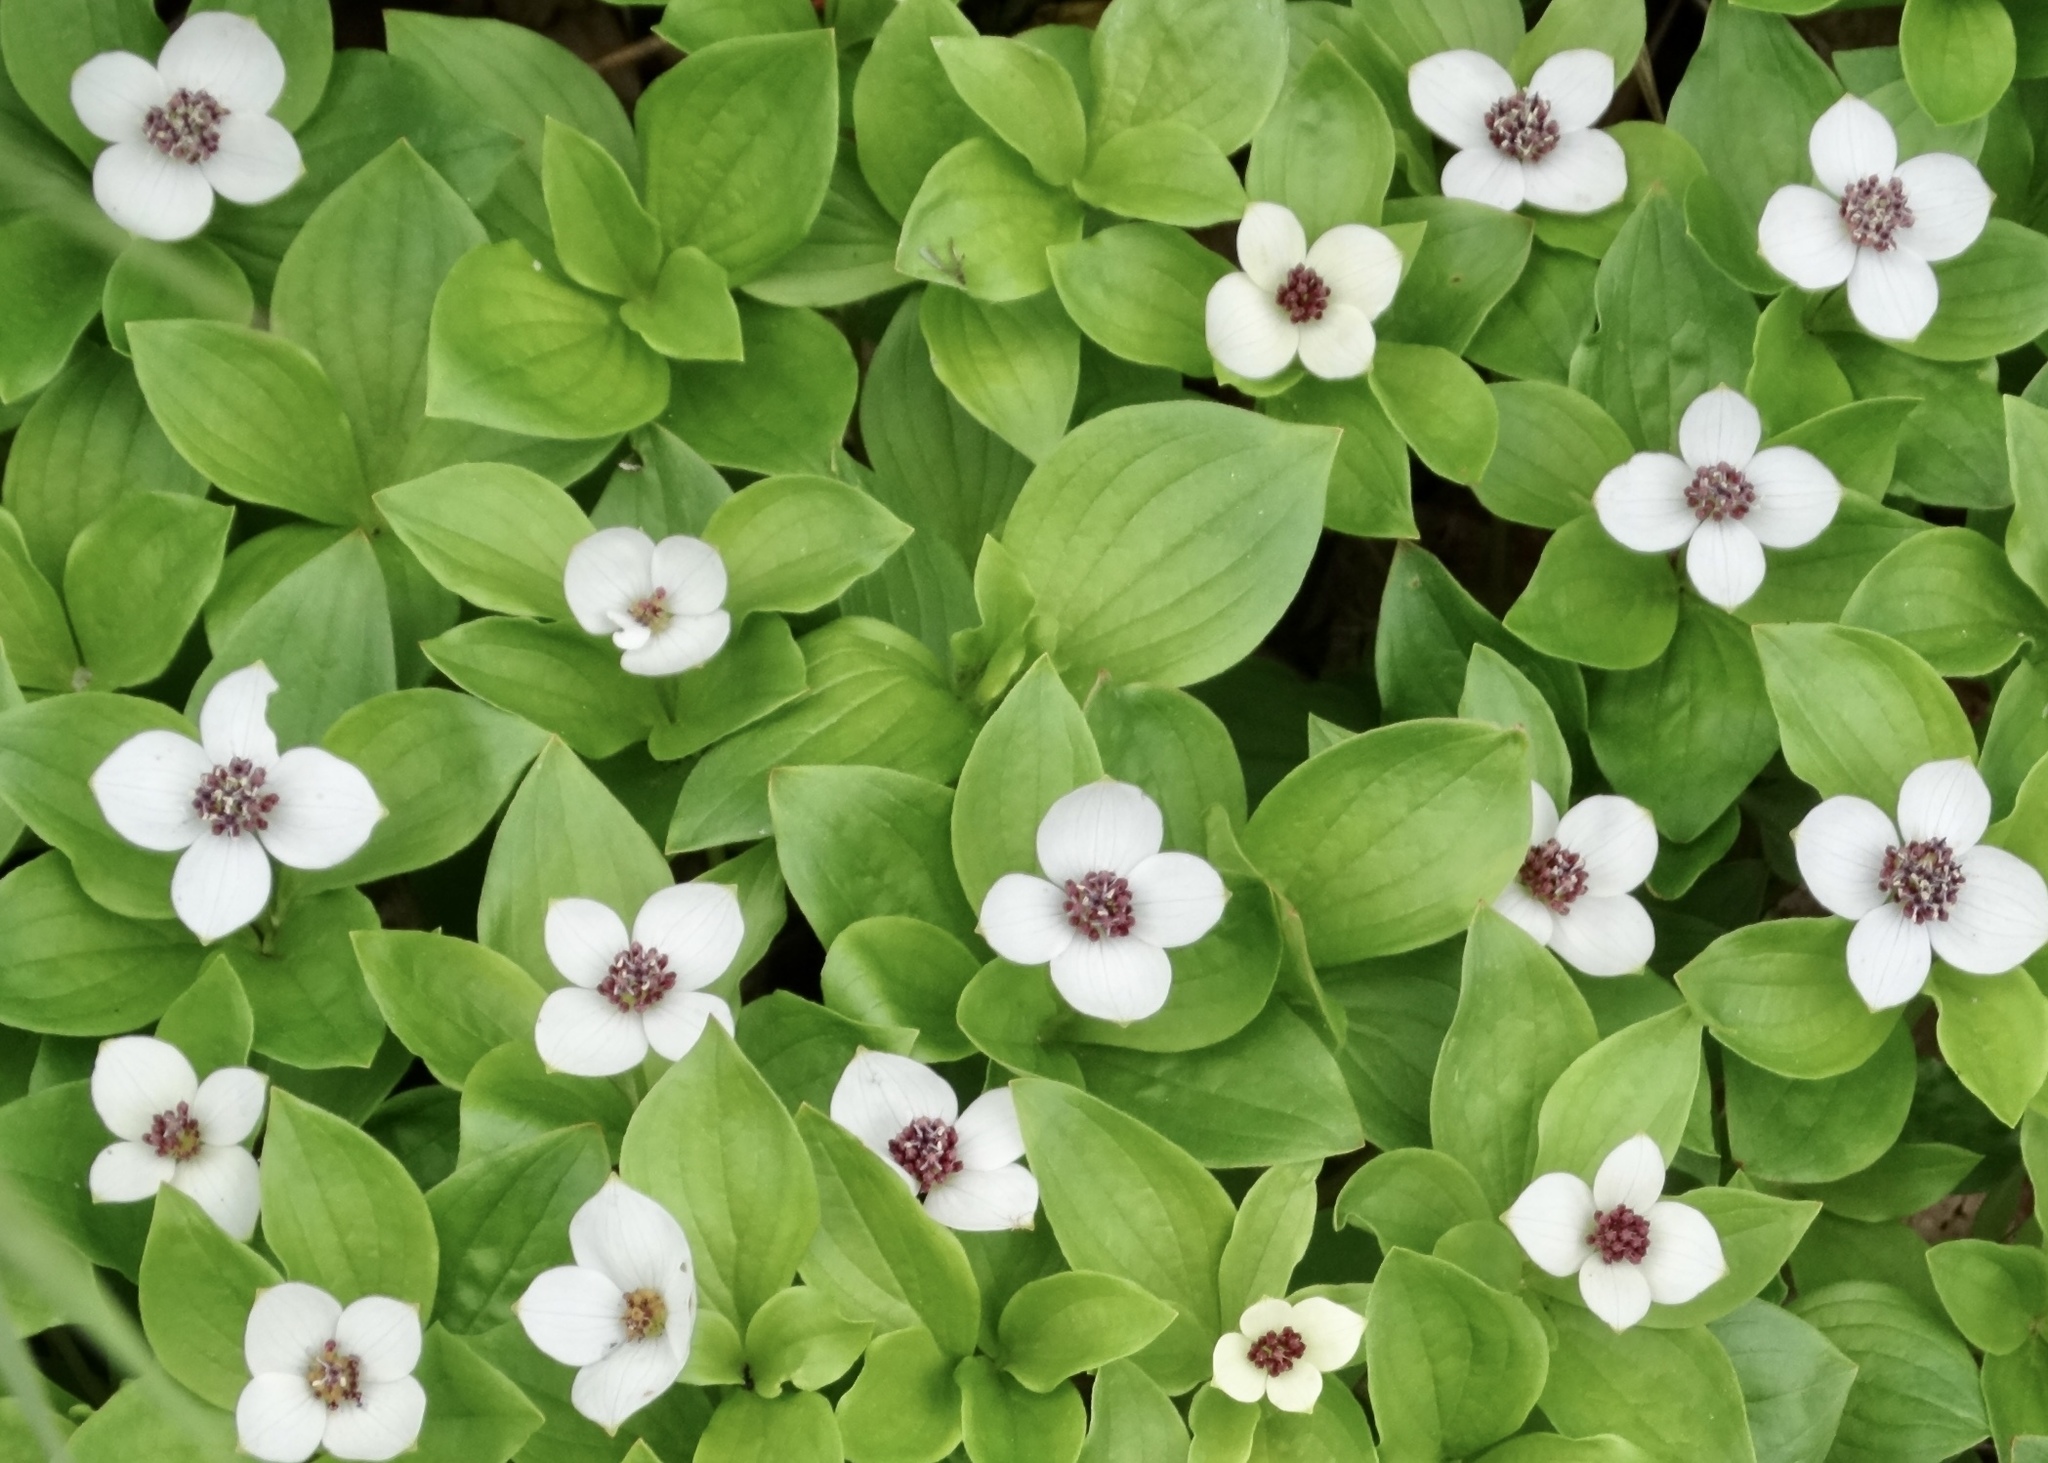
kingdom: Plantae
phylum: Tracheophyta
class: Magnoliopsida
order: Cornales
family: Cornaceae
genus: Cornus
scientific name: Cornus suecica
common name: Dwarf cornel
